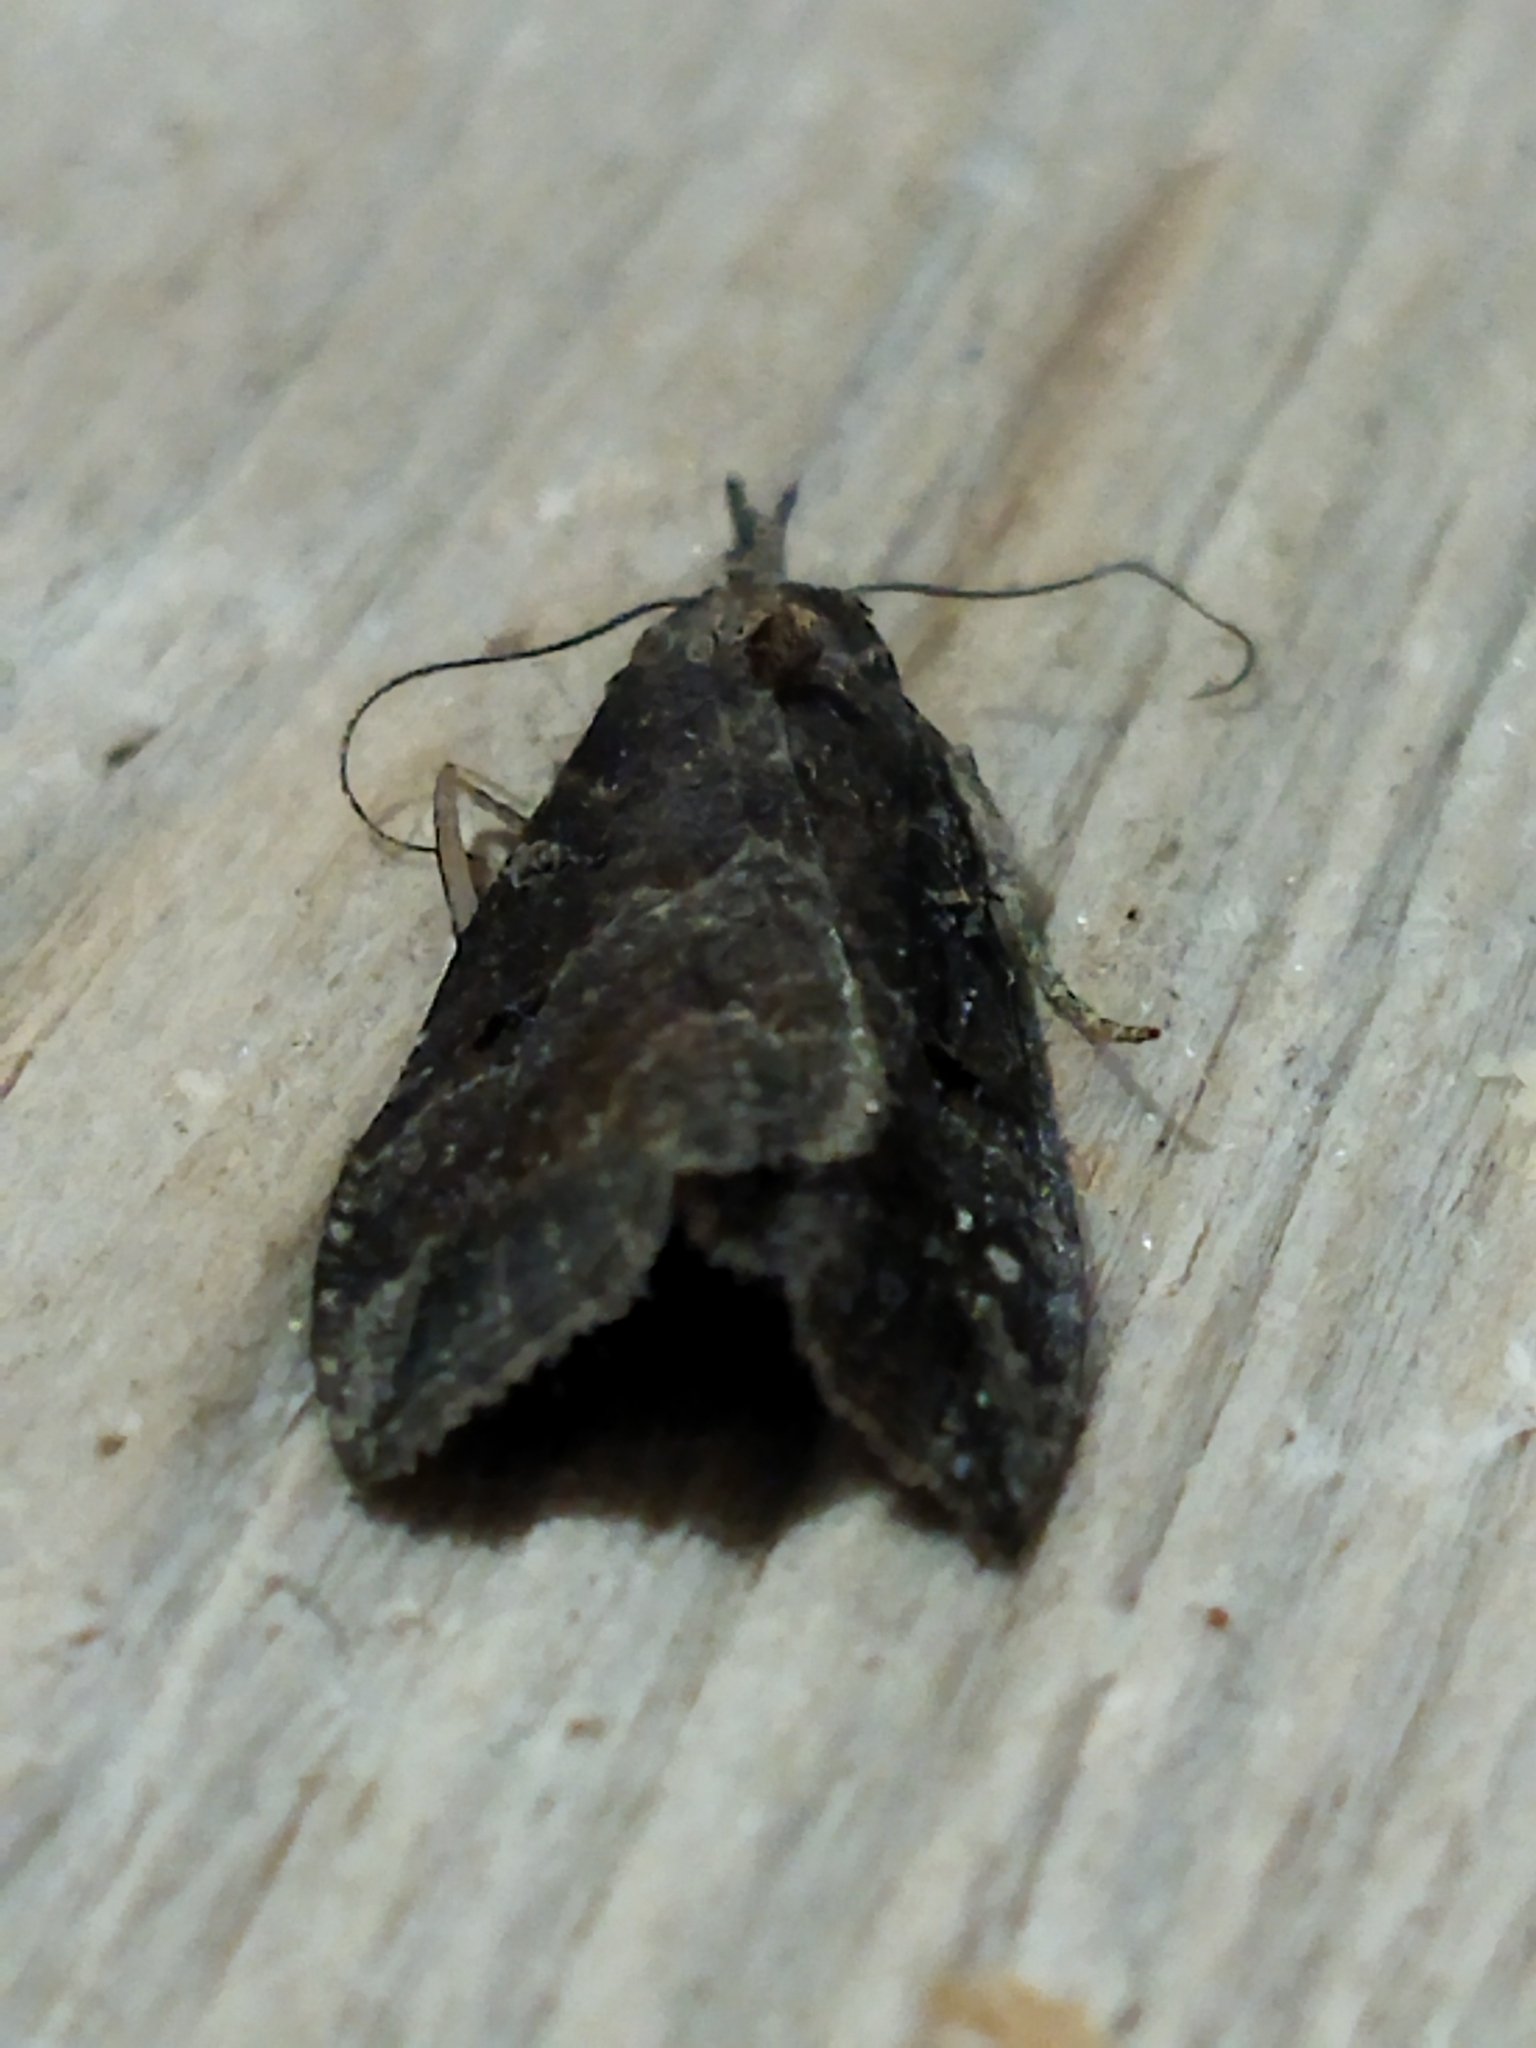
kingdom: Animalia
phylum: Arthropoda
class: Insecta
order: Lepidoptera
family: Erebidae
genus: Hypena
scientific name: Hypena rostralis
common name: Buttoned snout
